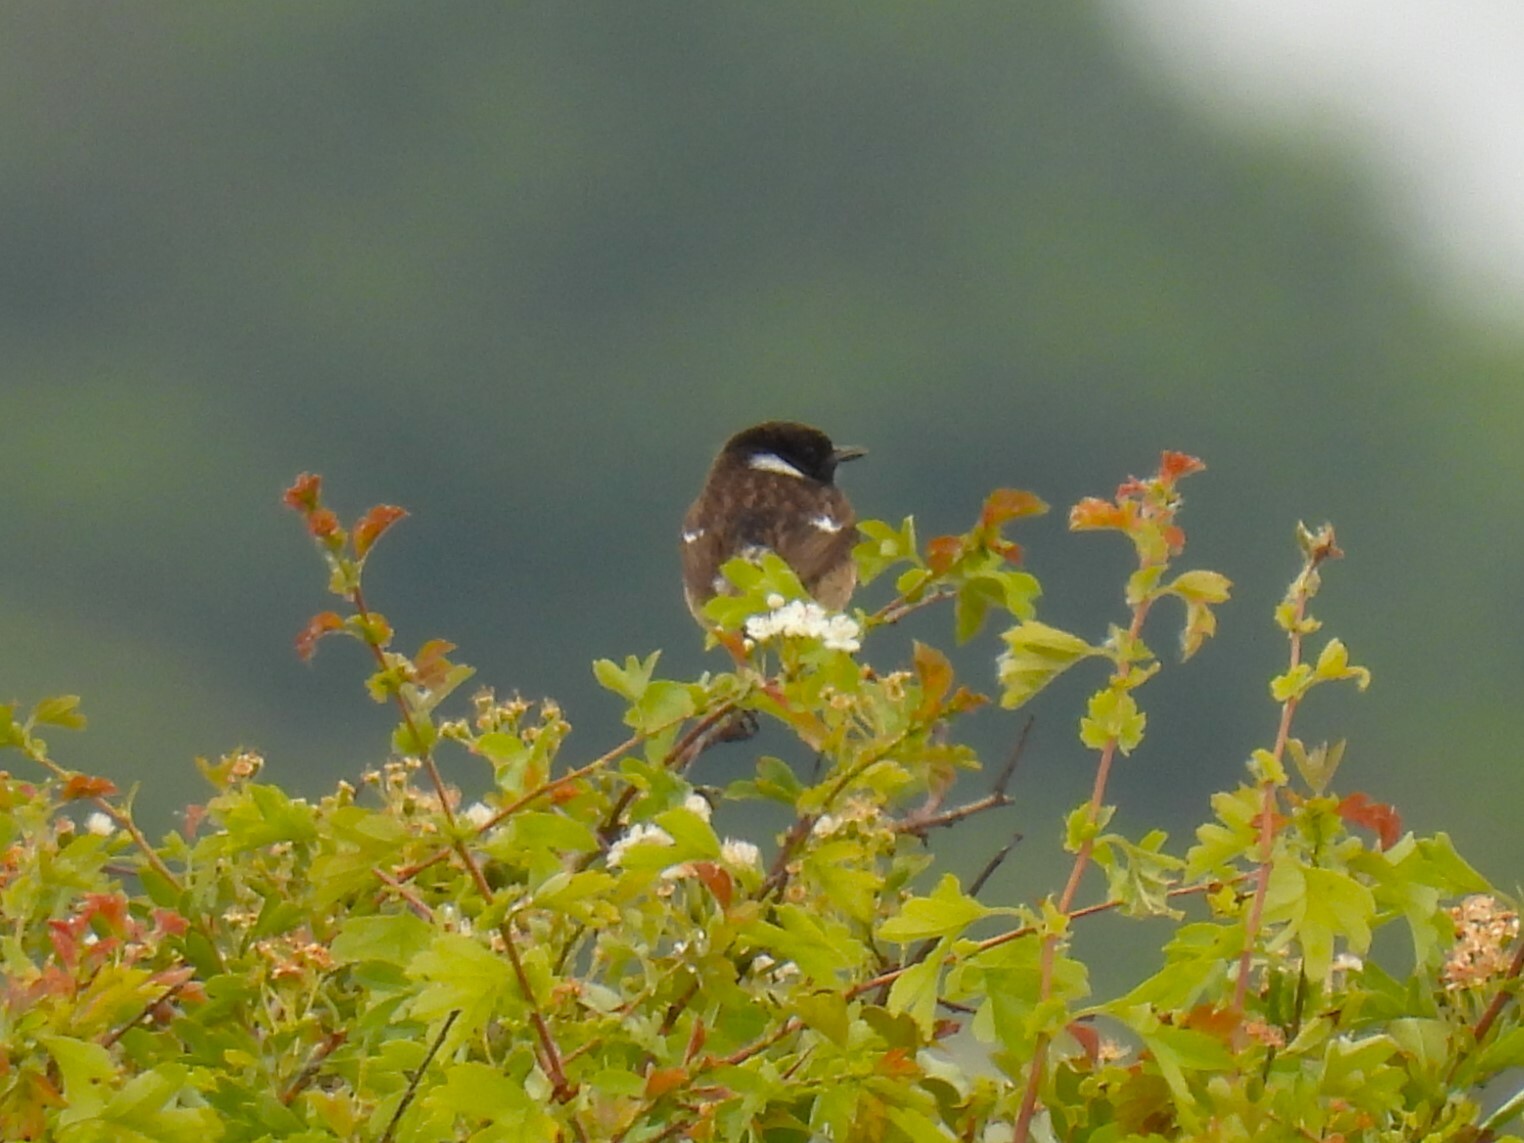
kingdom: Animalia
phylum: Chordata
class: Aves
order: Passeriformes
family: Muscicapidae
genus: Saxicola
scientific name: Saxicola rubicola
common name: European stonechat
